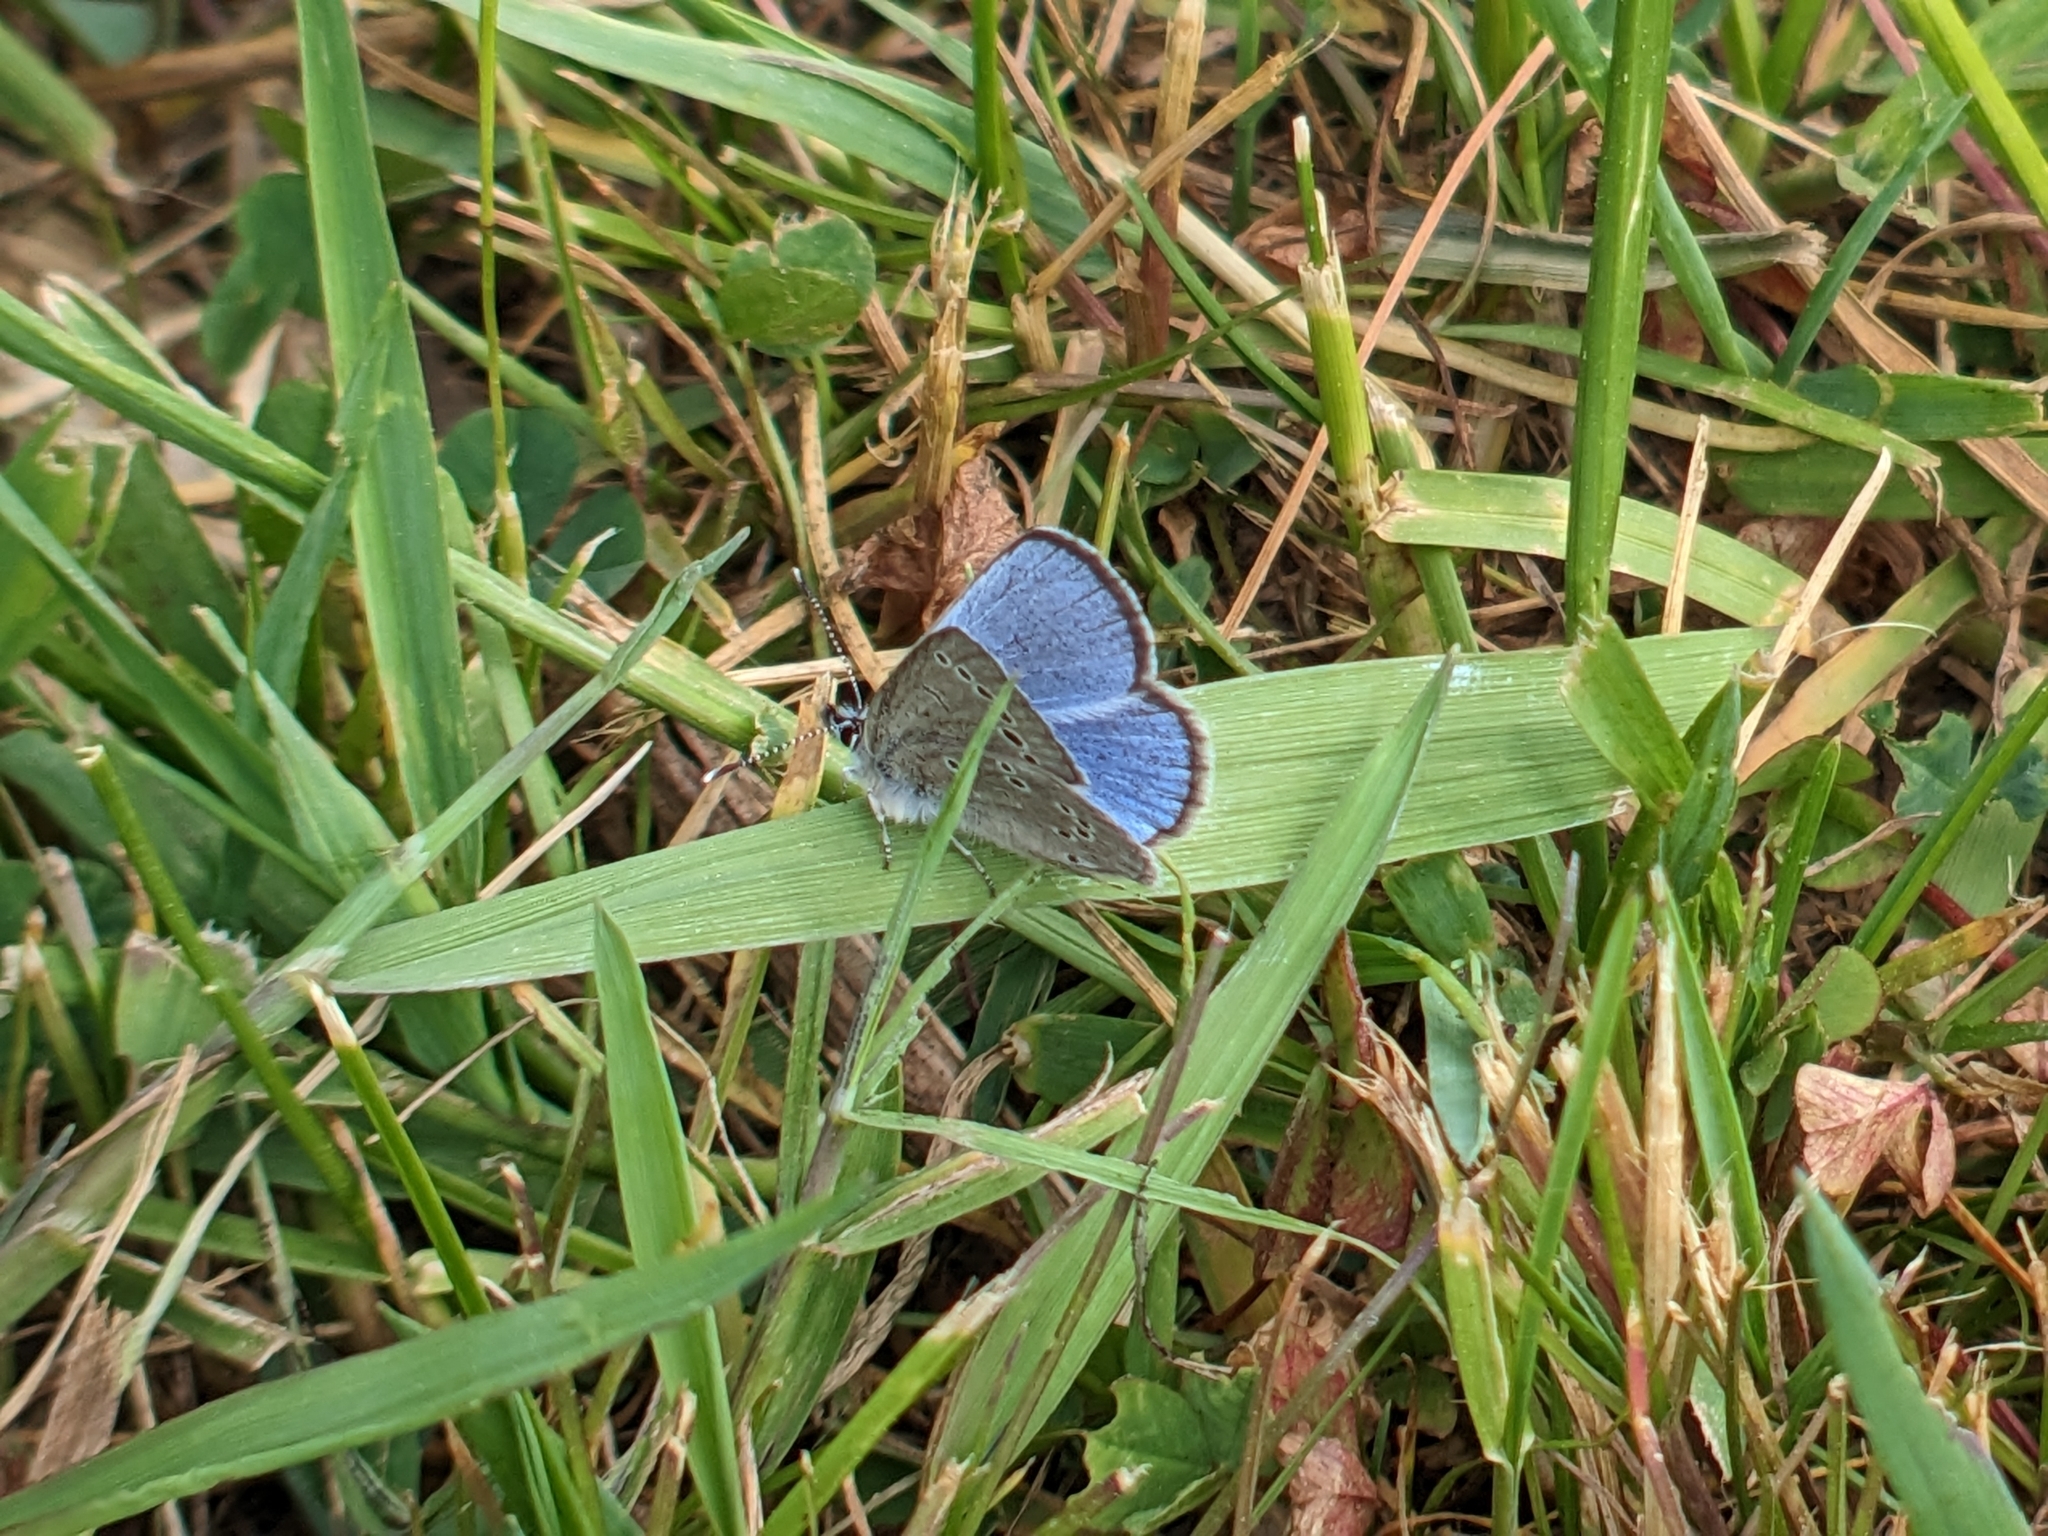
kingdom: Animalia
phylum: Arthropoda
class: Insecta
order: Lepidoptera
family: Lycaenidae
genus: Glaucopsyche
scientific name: Glaucopsyche lygdamus
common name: Silvery blue
